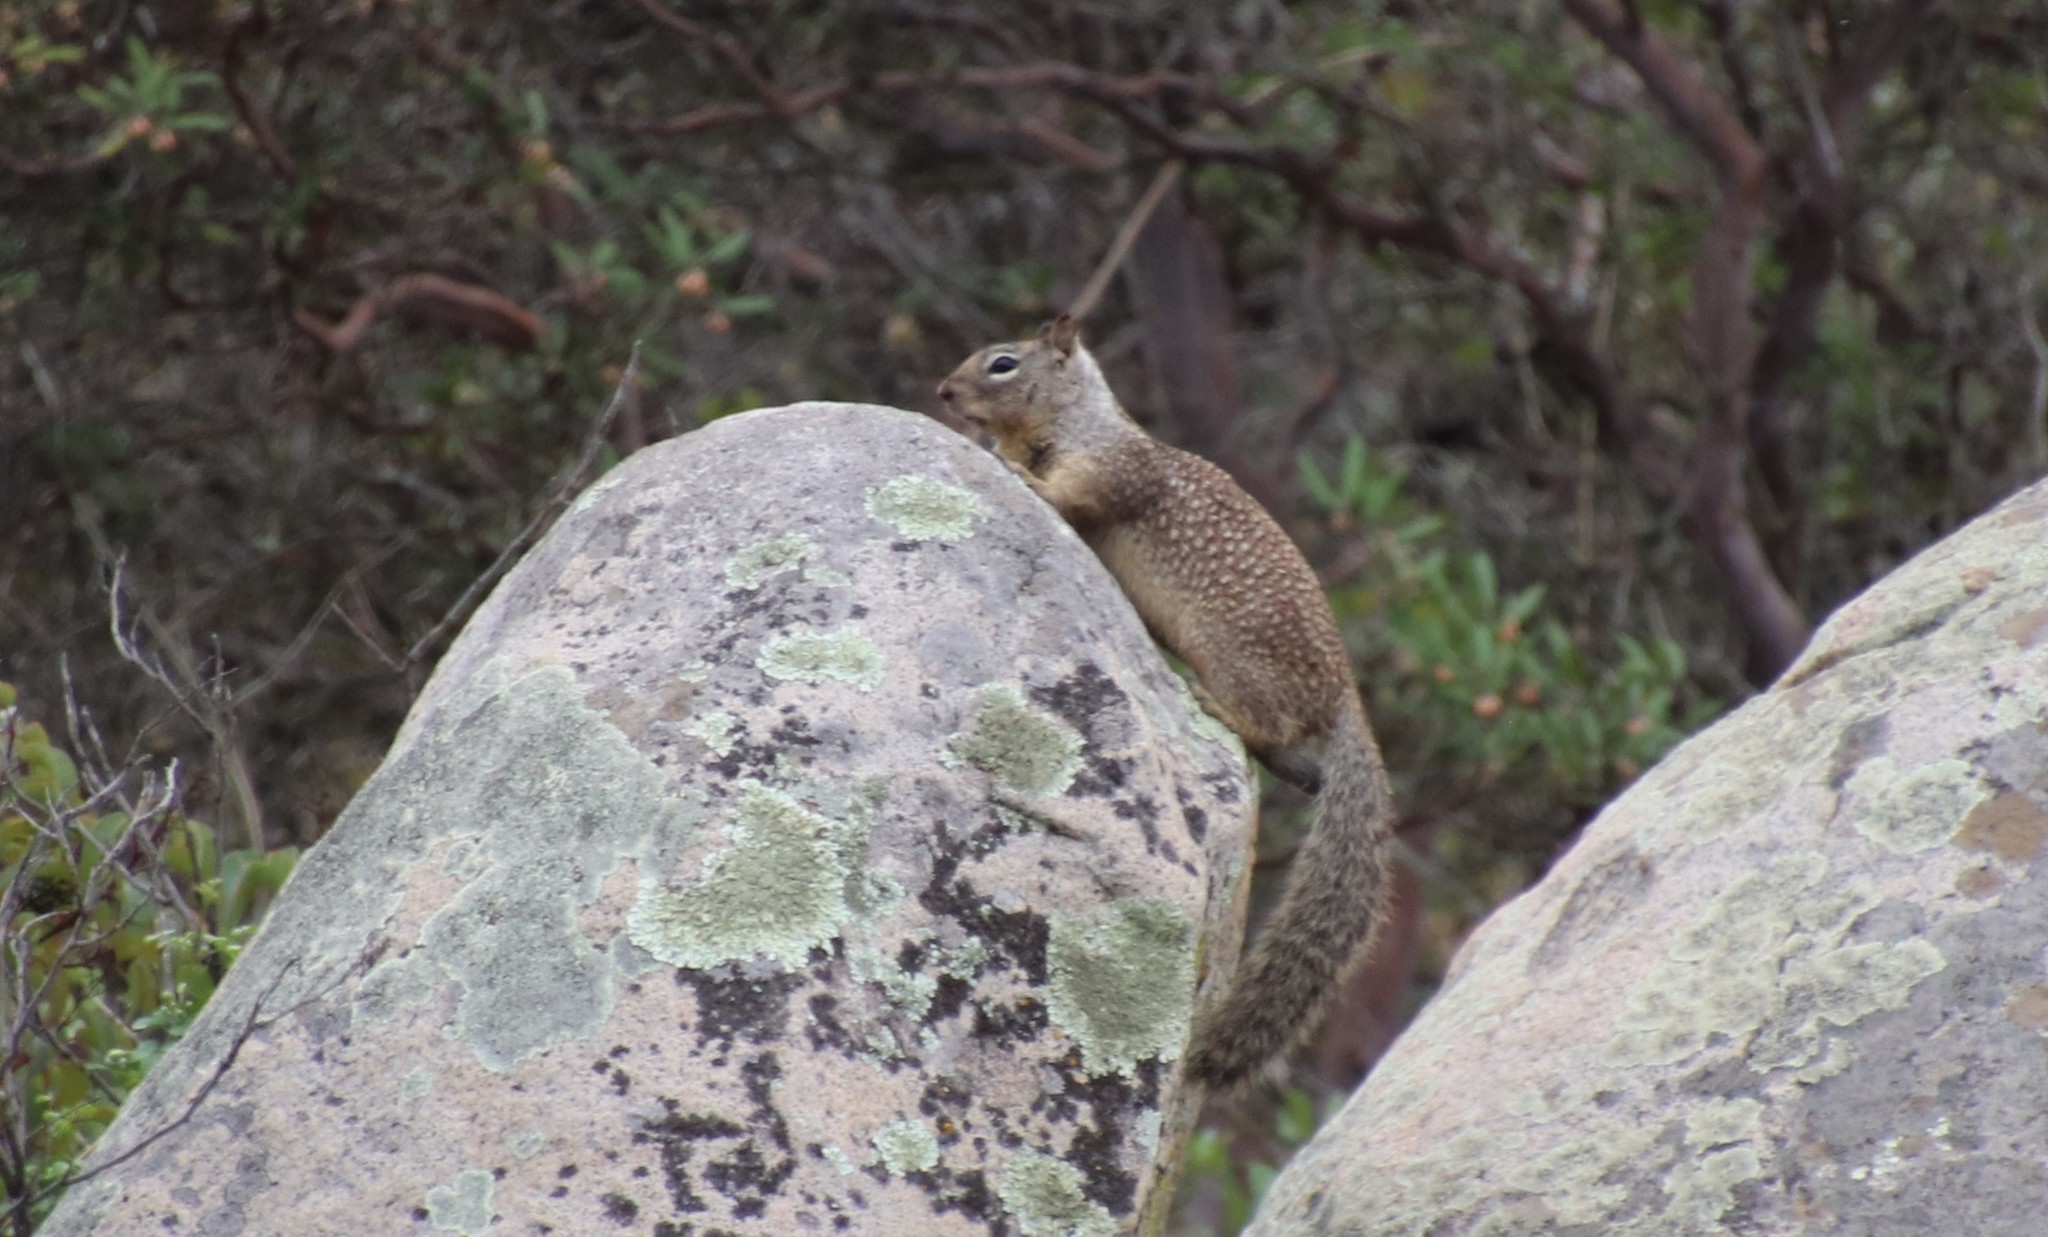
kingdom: Animalia
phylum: Chordata
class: Mammalia
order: Rodentia
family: Sciuridae
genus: Otospermophilus
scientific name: Otospermophilus beecheyi
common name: California ground squirrel
